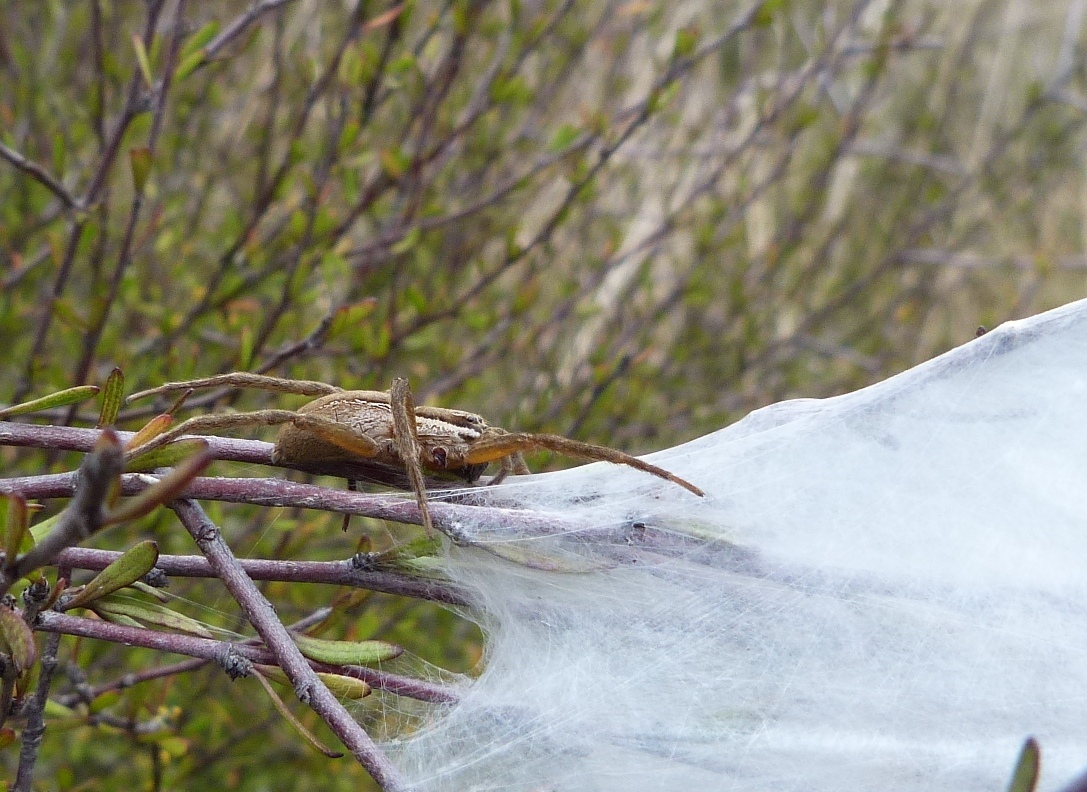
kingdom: Animalia
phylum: Arthropoda
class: Arachnida
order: Araneae
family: Pisauridae
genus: Dolomedes
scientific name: Dolomedes minor
